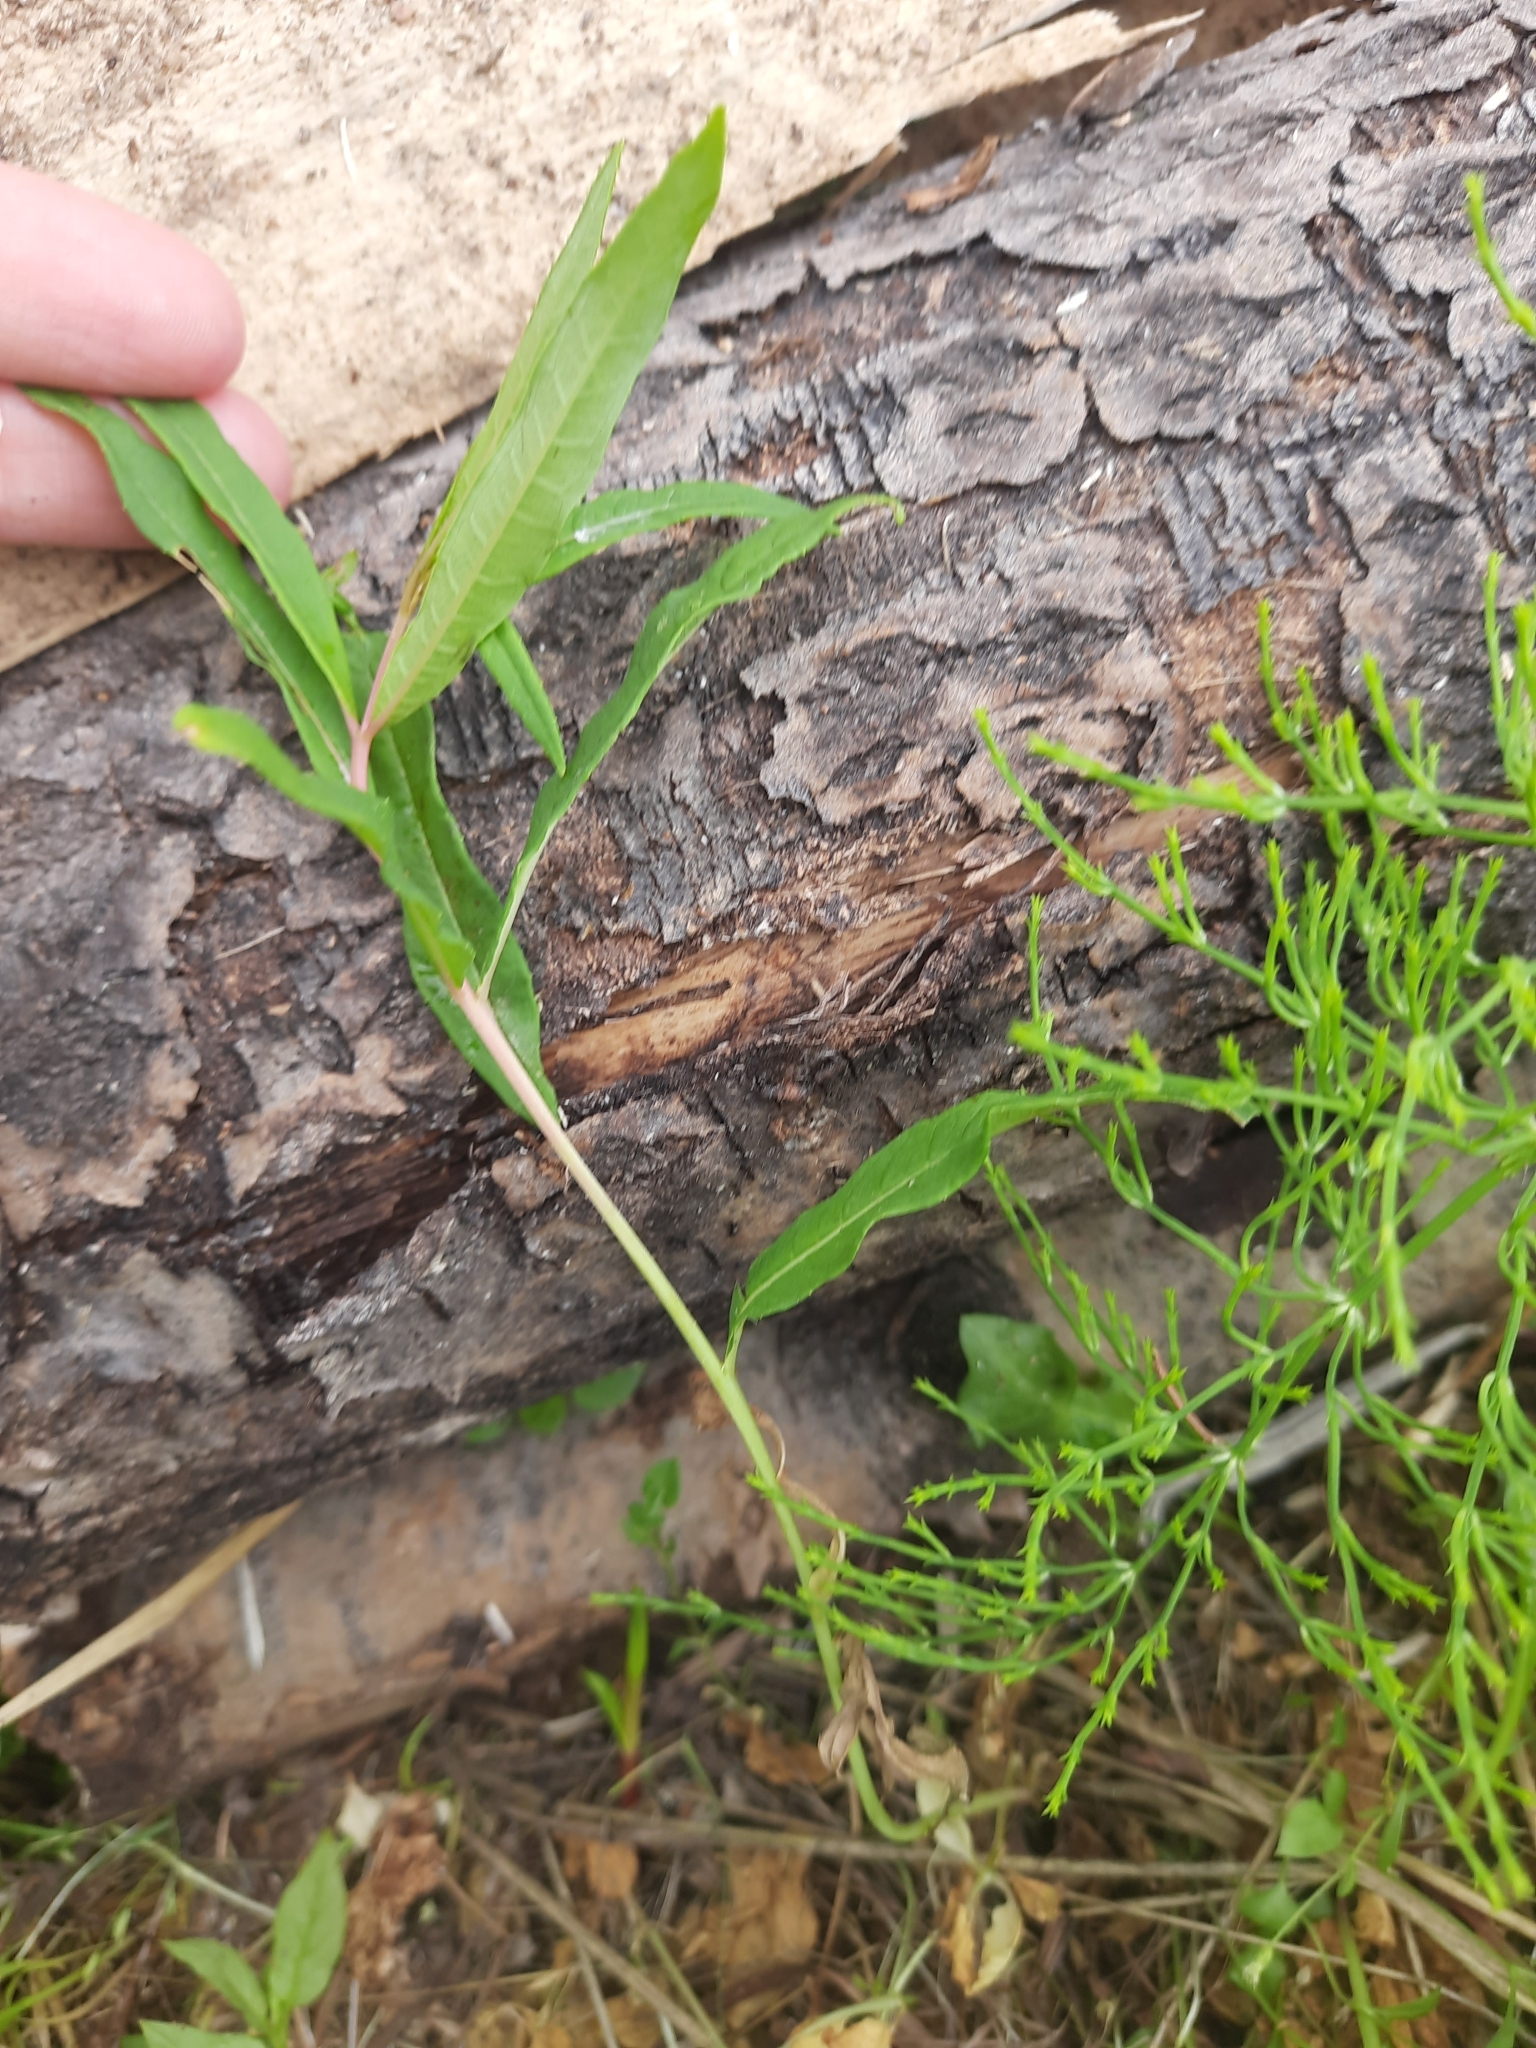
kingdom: Plantae
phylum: Tracheophyta
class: Magnoliopsida
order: Myrtales
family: Onagraceae
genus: Chamaenerion
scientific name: Chamaenerion angustifolium
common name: Fireweed
